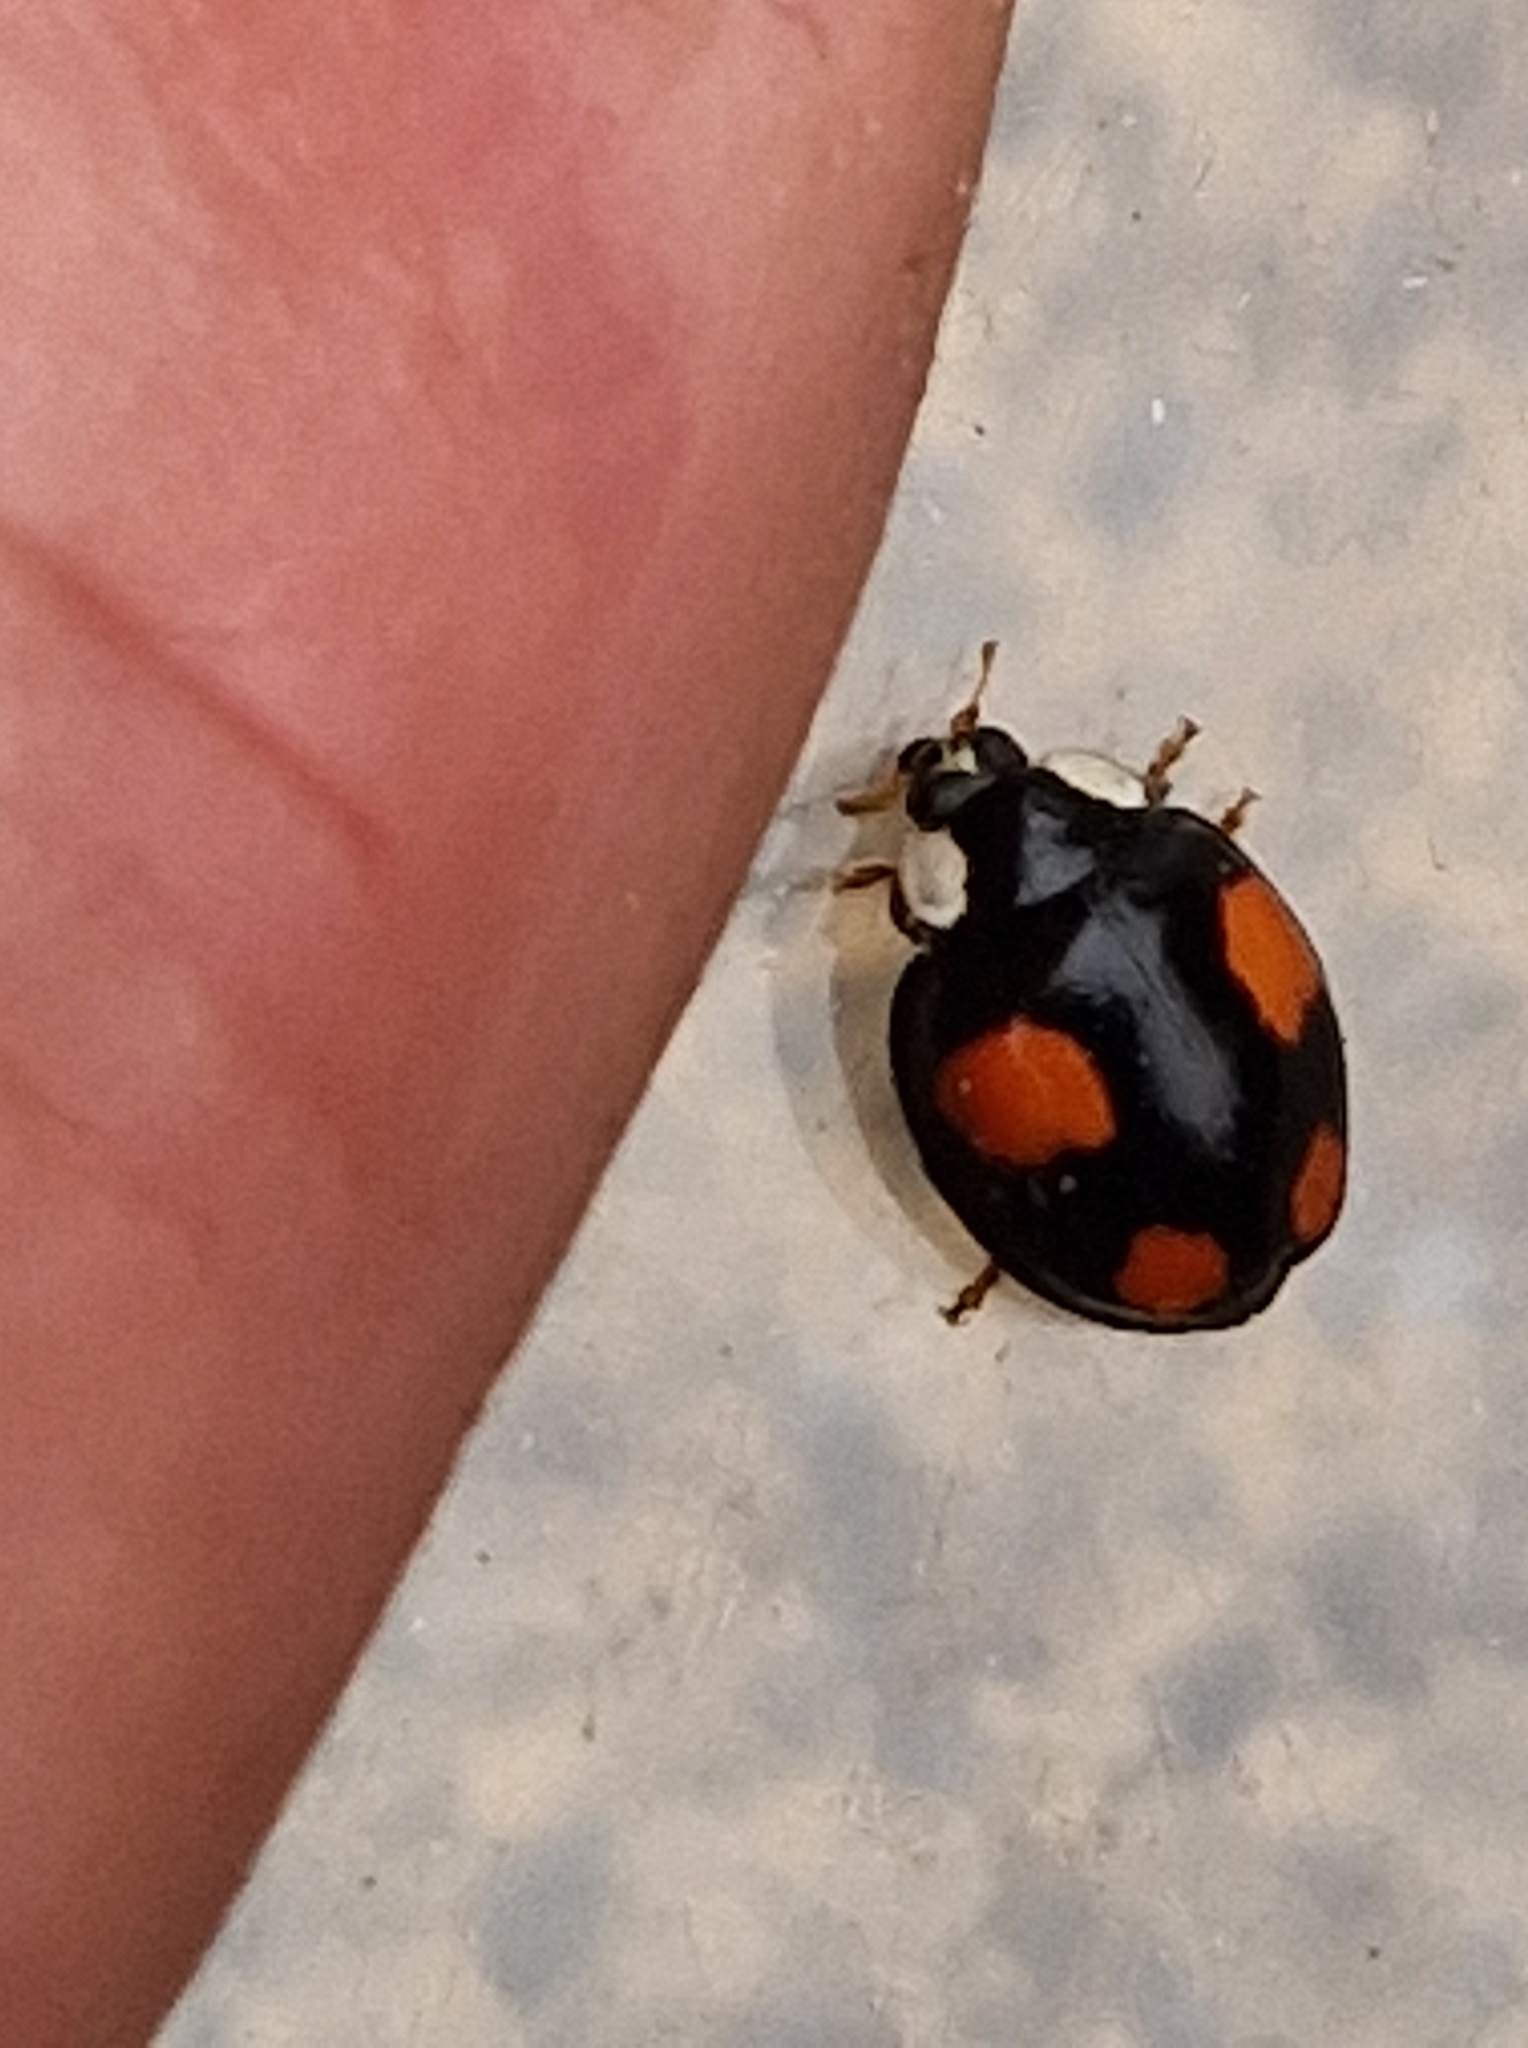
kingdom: Animalia
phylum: Arthropoda
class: Insecta
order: Coleoptera
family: Coccinellidae
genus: Harmonia
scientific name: Harmonia axyridis
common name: Harlequin ladybird
